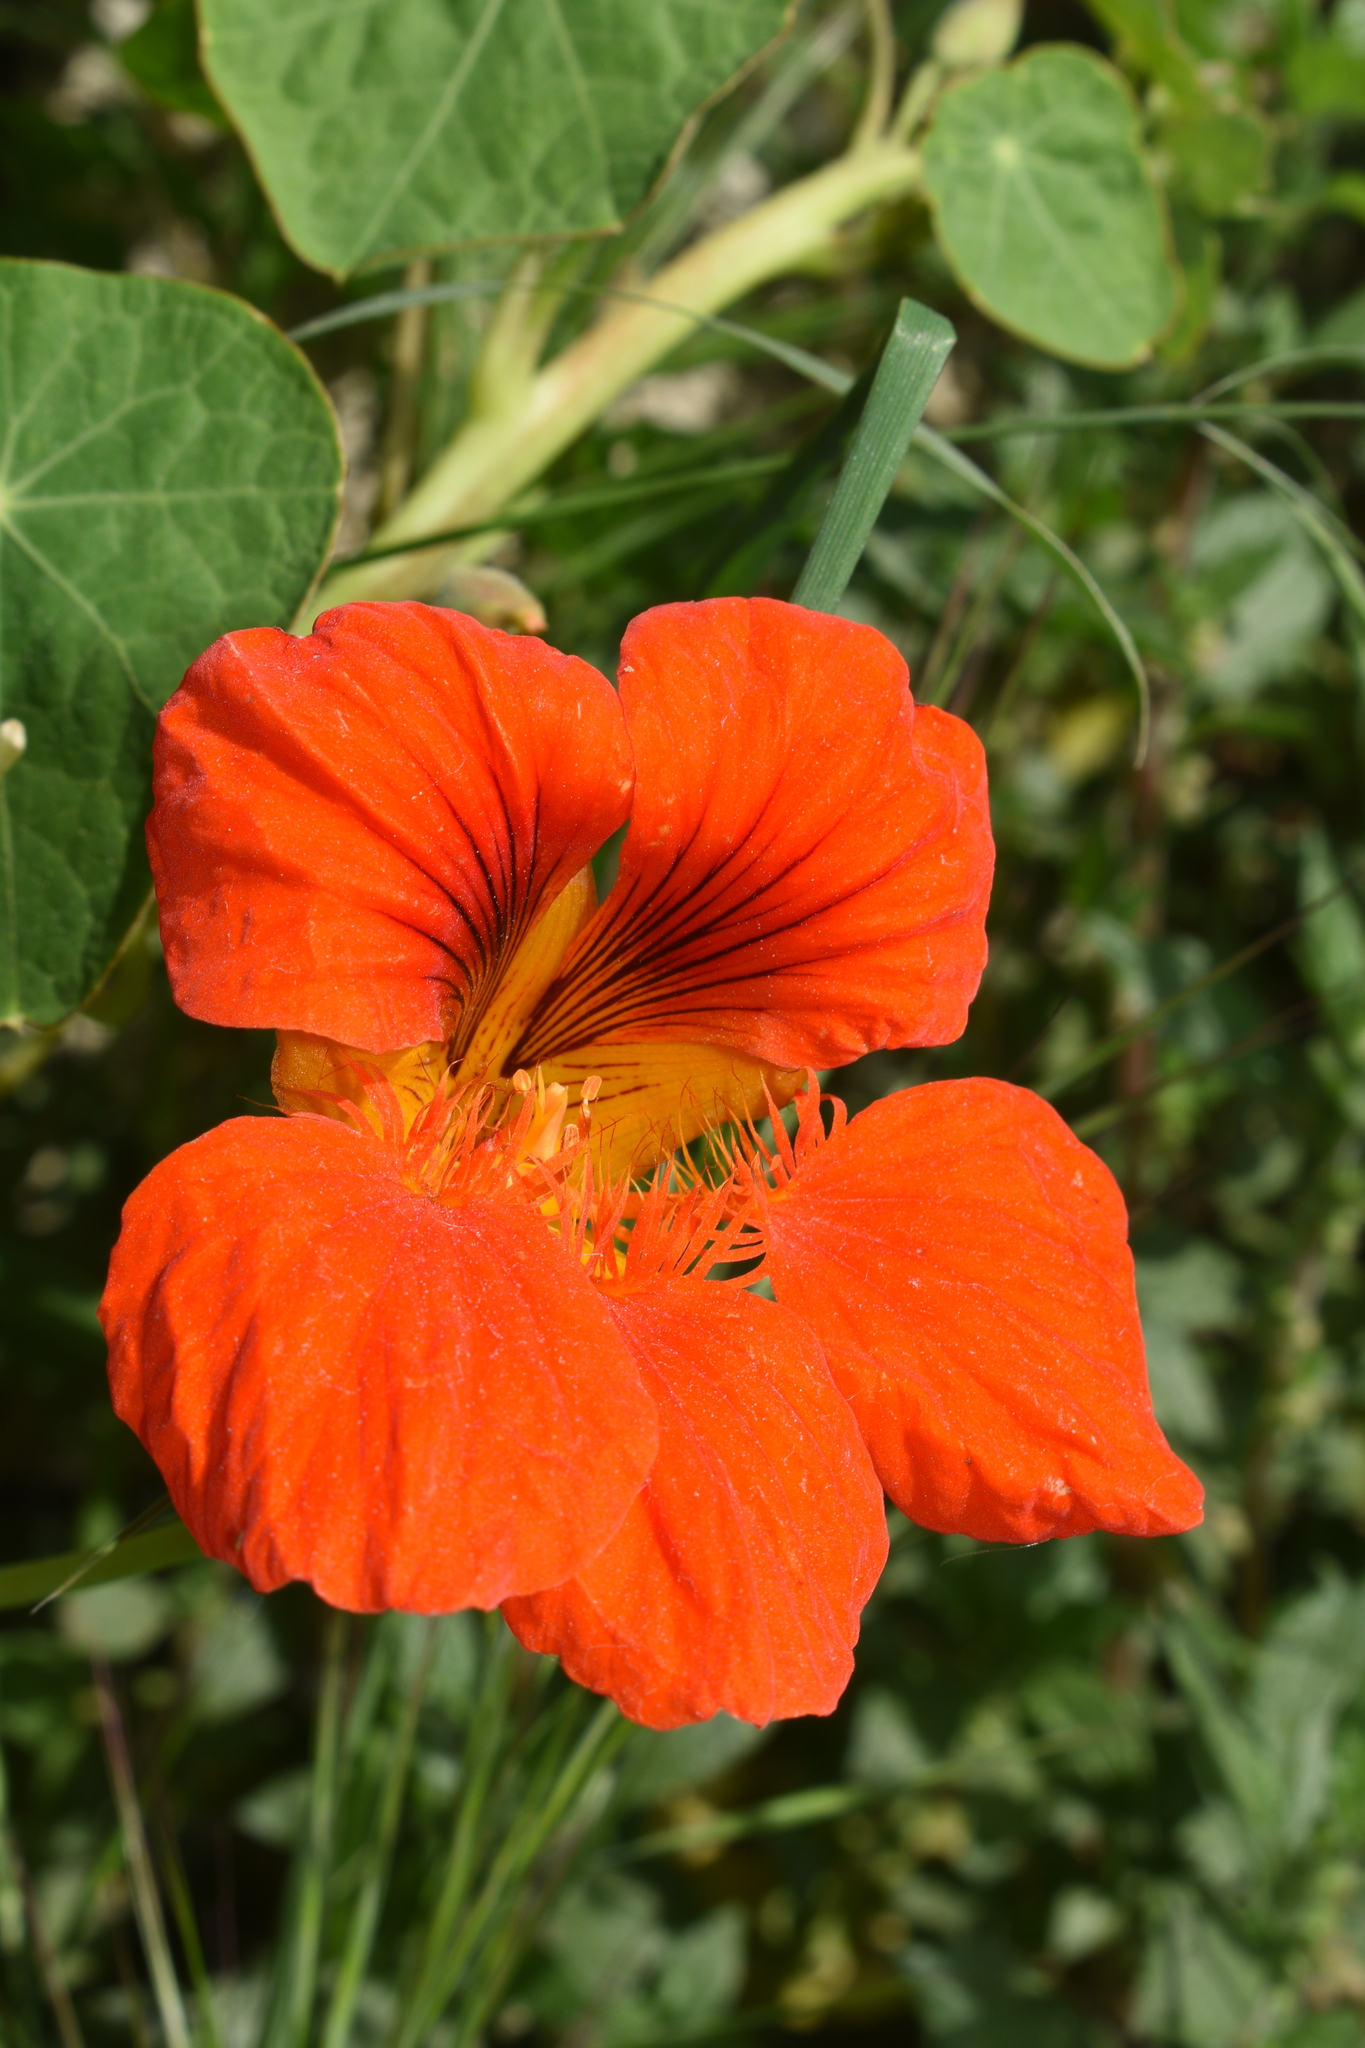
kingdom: Plantae
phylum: Tracheophyta
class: Magnoliopsida
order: Brassicales
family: Tropaeolaceae
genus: Tropaeolum
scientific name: Tropaeolum majus
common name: Nasturtium
